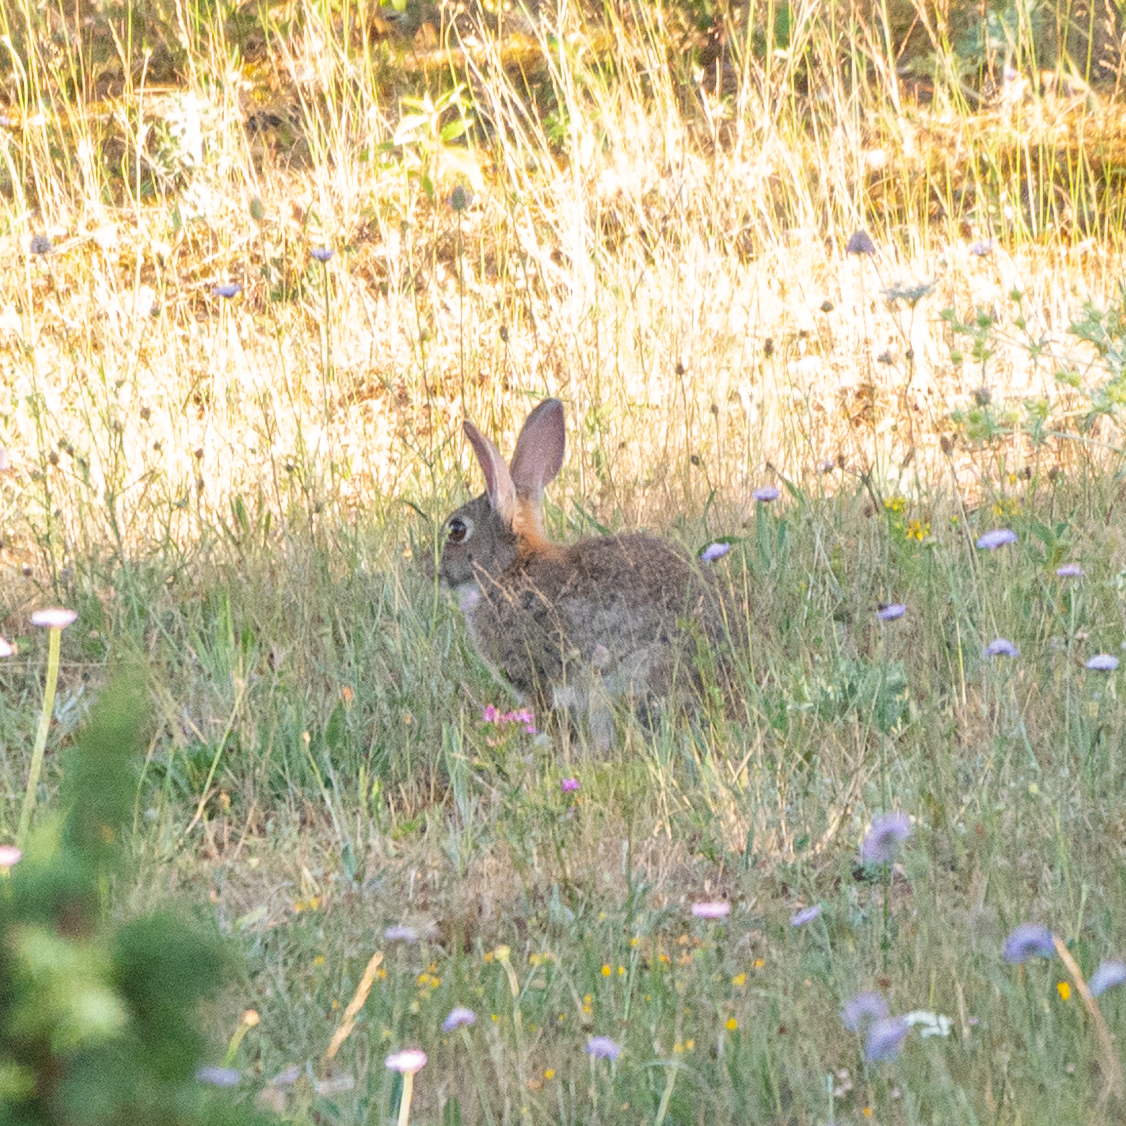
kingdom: Animalia
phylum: Chordata
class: Mammalia
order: Lagomorpha
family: Leporidae
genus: Oryctolagus
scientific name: Oryctolagus cuniculus
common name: European rabbit
